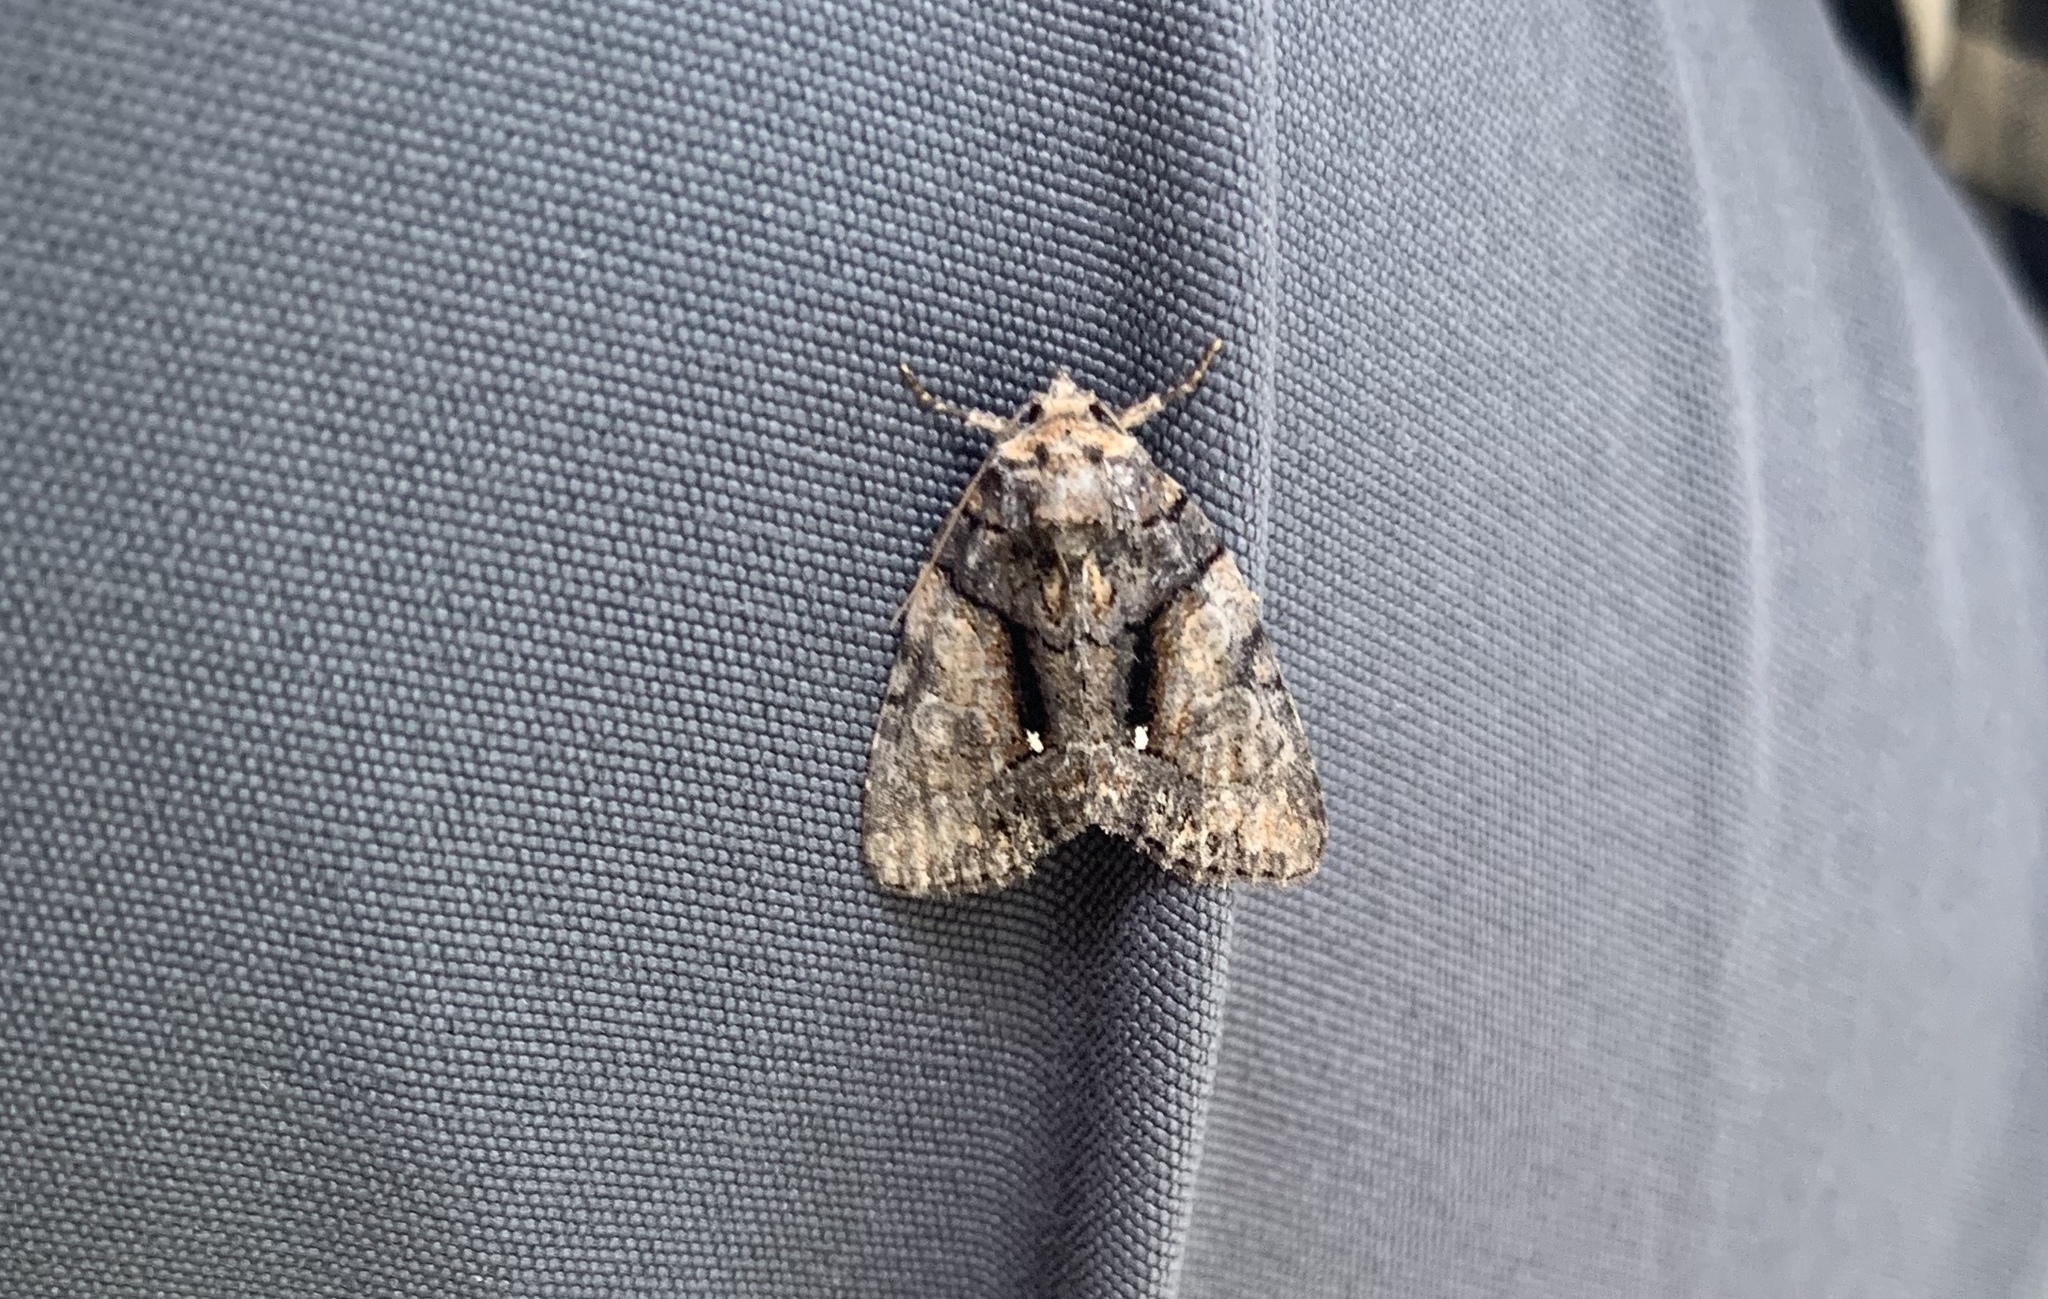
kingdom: Animalia
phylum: Arthropoda
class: Insecta
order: Lepidoptera
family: Noctuidae
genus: Chytonix
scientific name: Chytonix palliatricula
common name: Cloaked marvel
